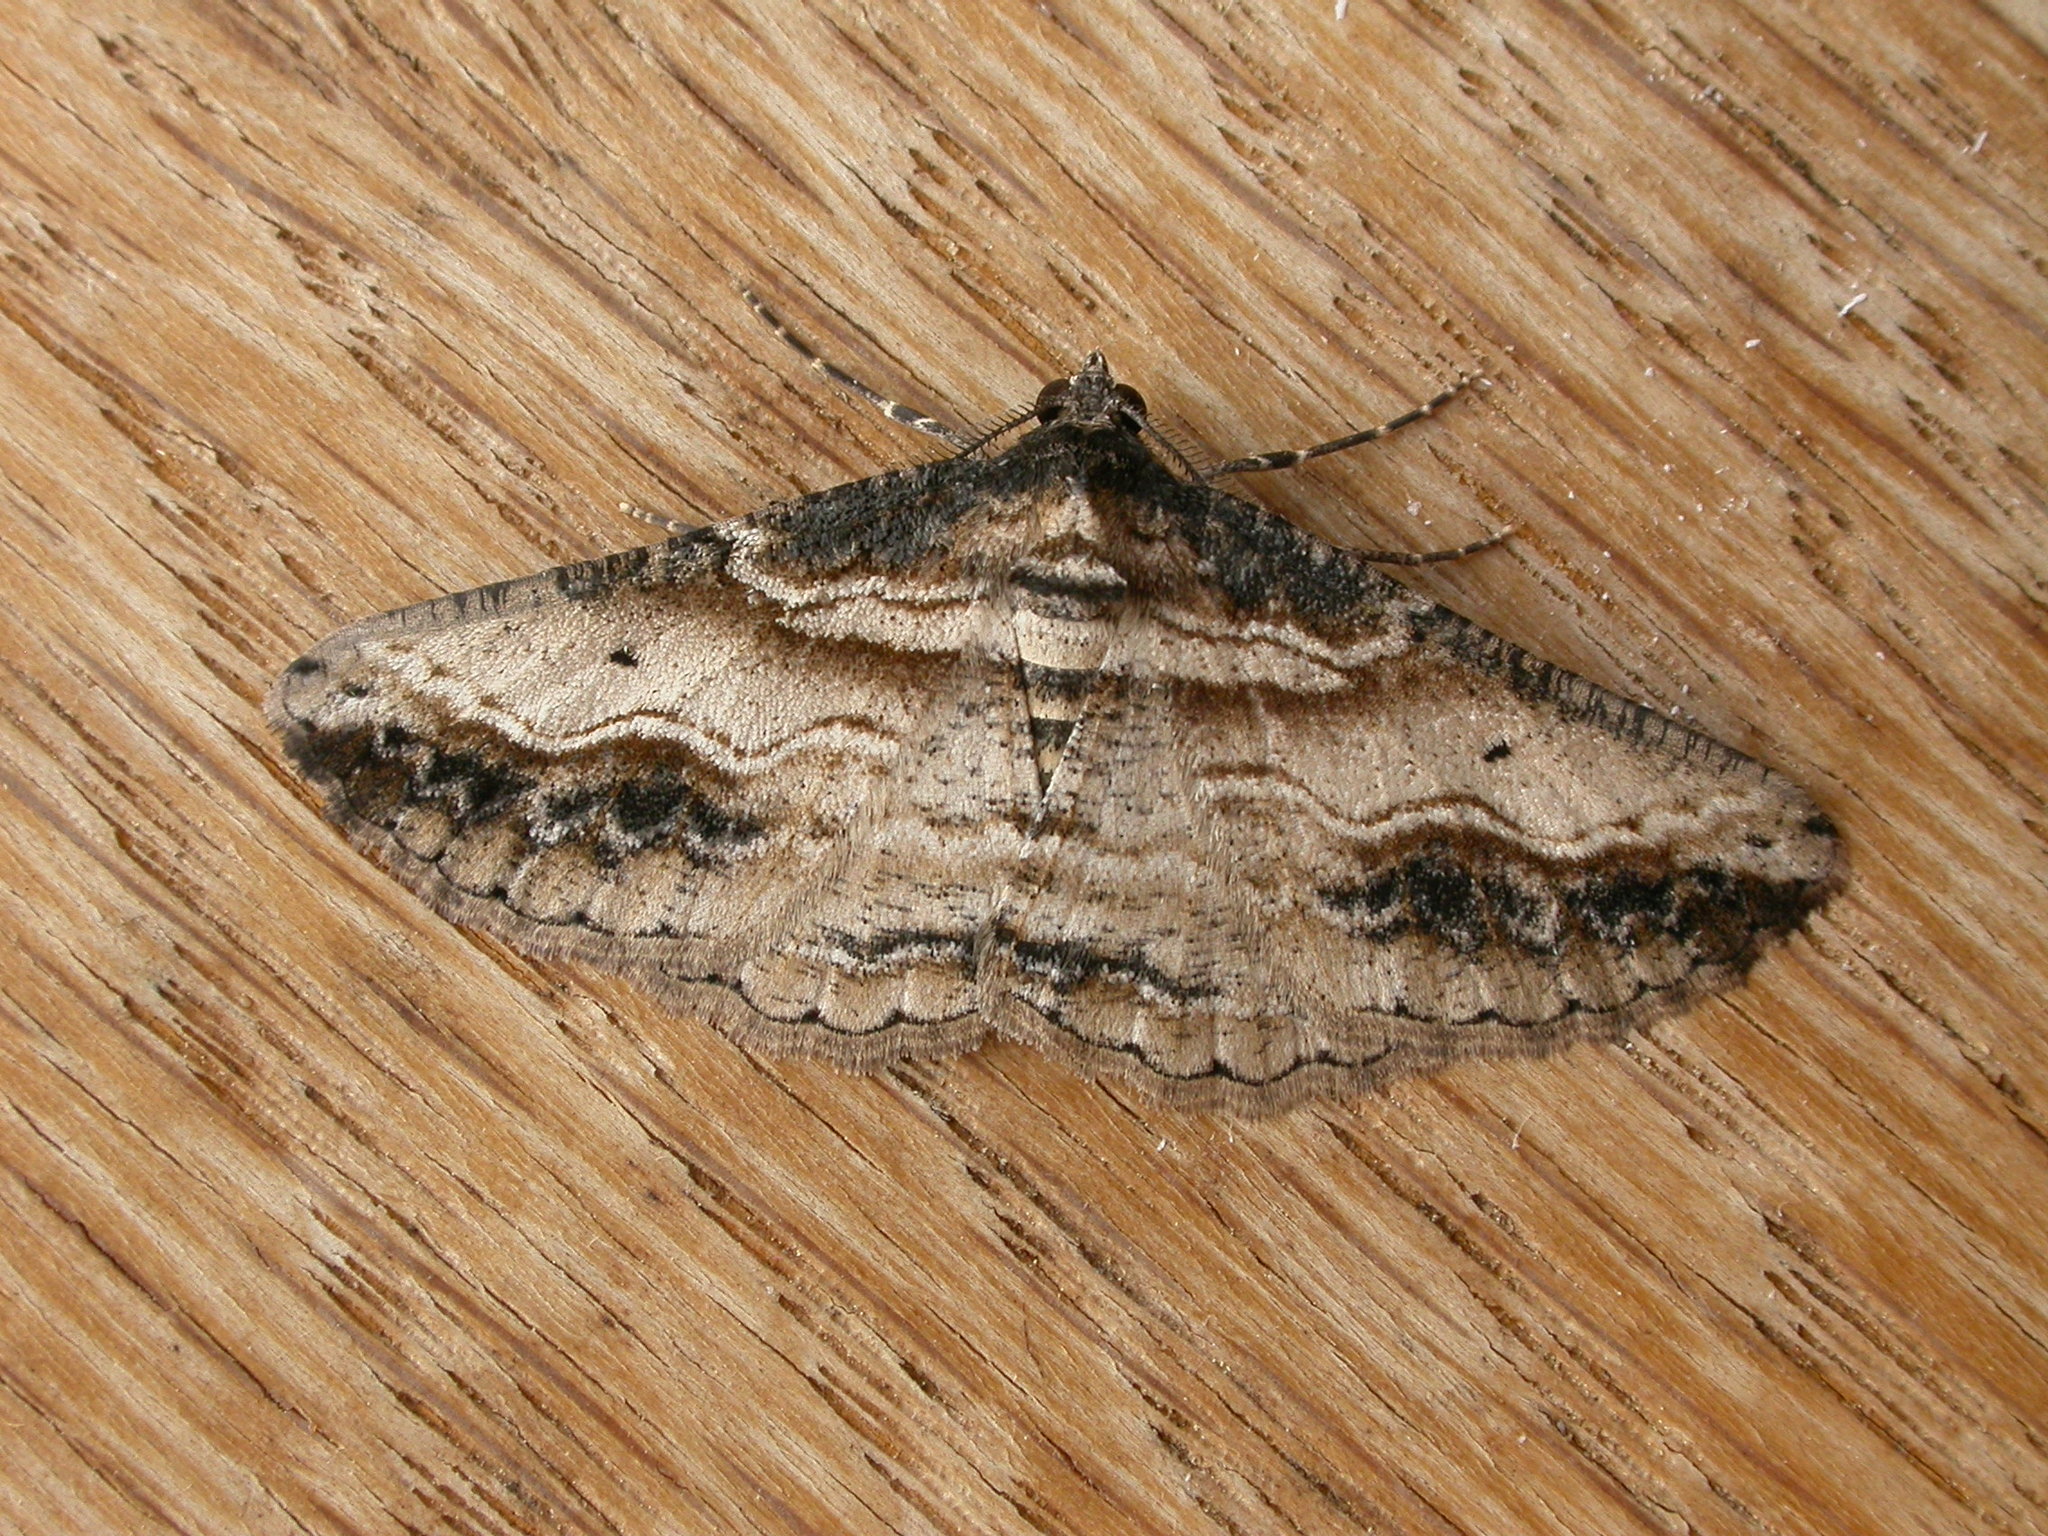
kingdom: Animalia
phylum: Arthropoda
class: Insecta
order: Lepidoptera
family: Geometridae
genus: Syneora
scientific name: Syneora euboliaria
